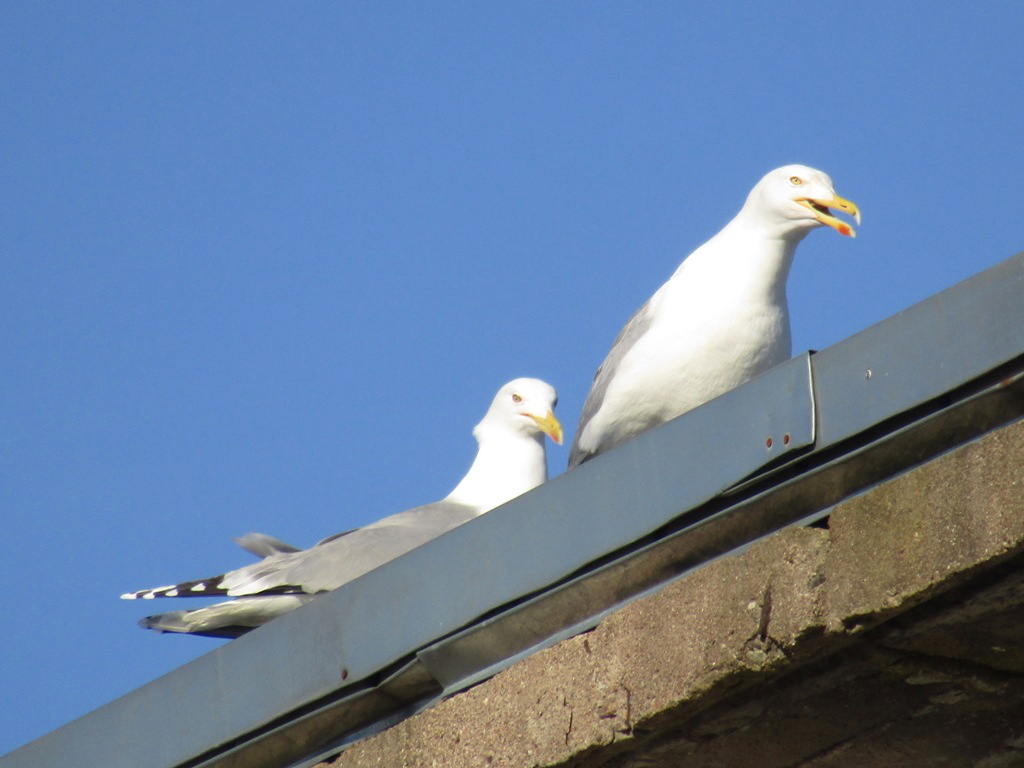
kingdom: Animalia
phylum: Chordata
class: Aves
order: Charadriiformes
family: Laridae
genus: Larus
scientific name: Larus argentatus
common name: Herring gull
